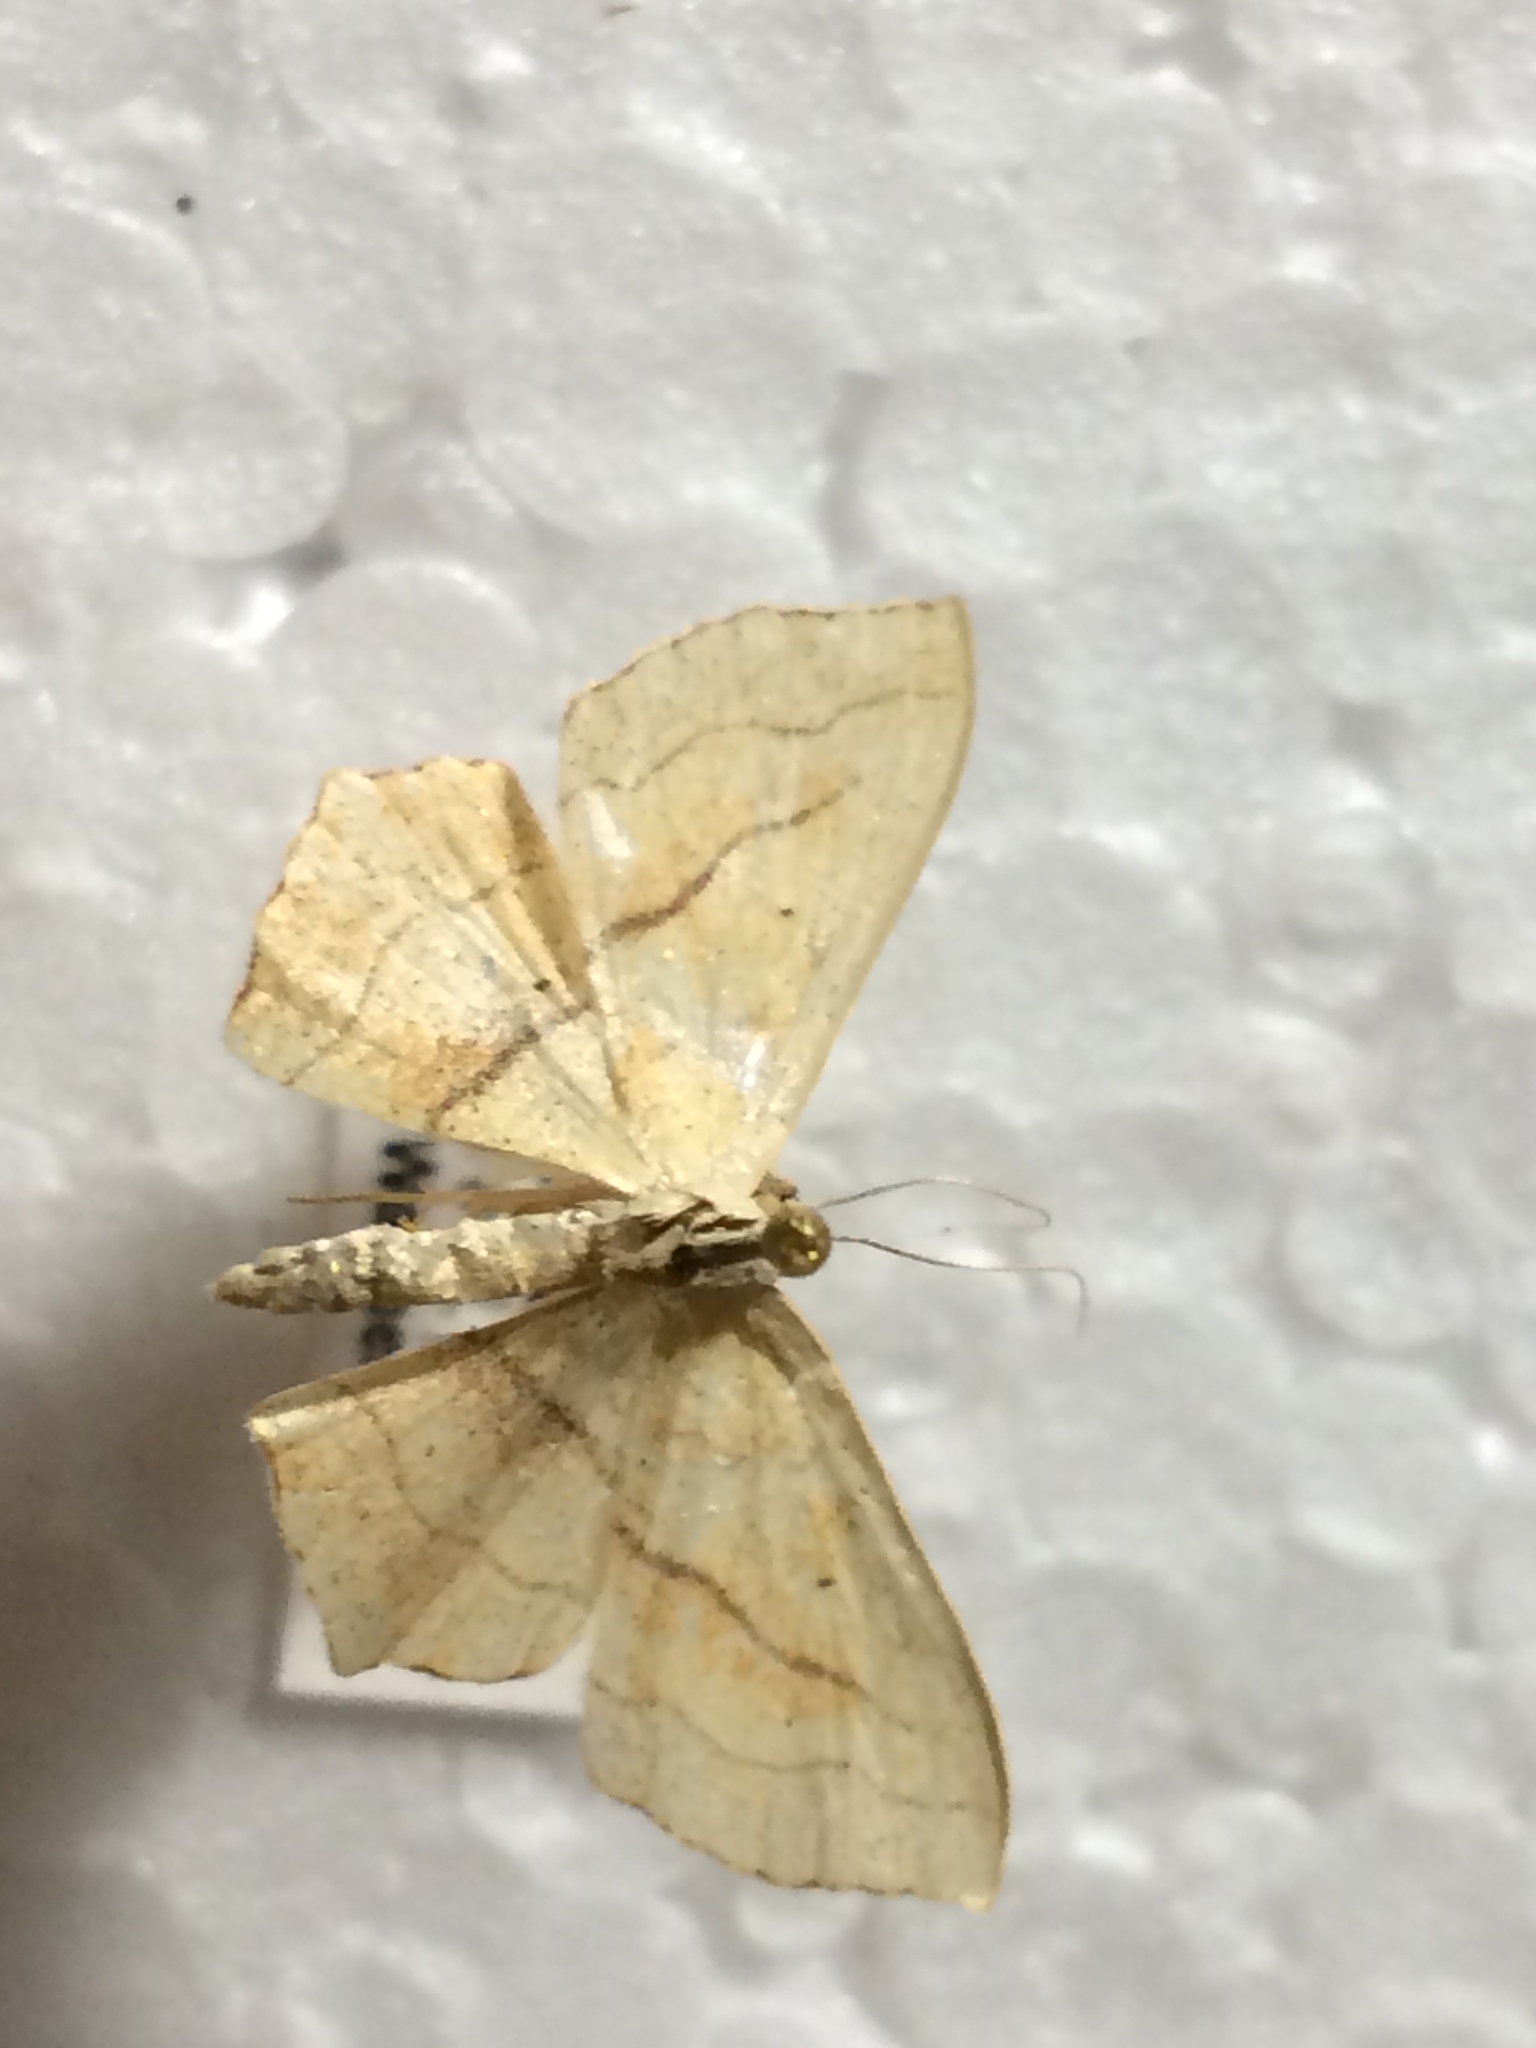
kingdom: Animalia
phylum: Arthropoda
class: Insecta
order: Lepidoptera
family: Geometridae
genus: Scopula
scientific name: Scopula imitaria
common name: Small blood-vein
